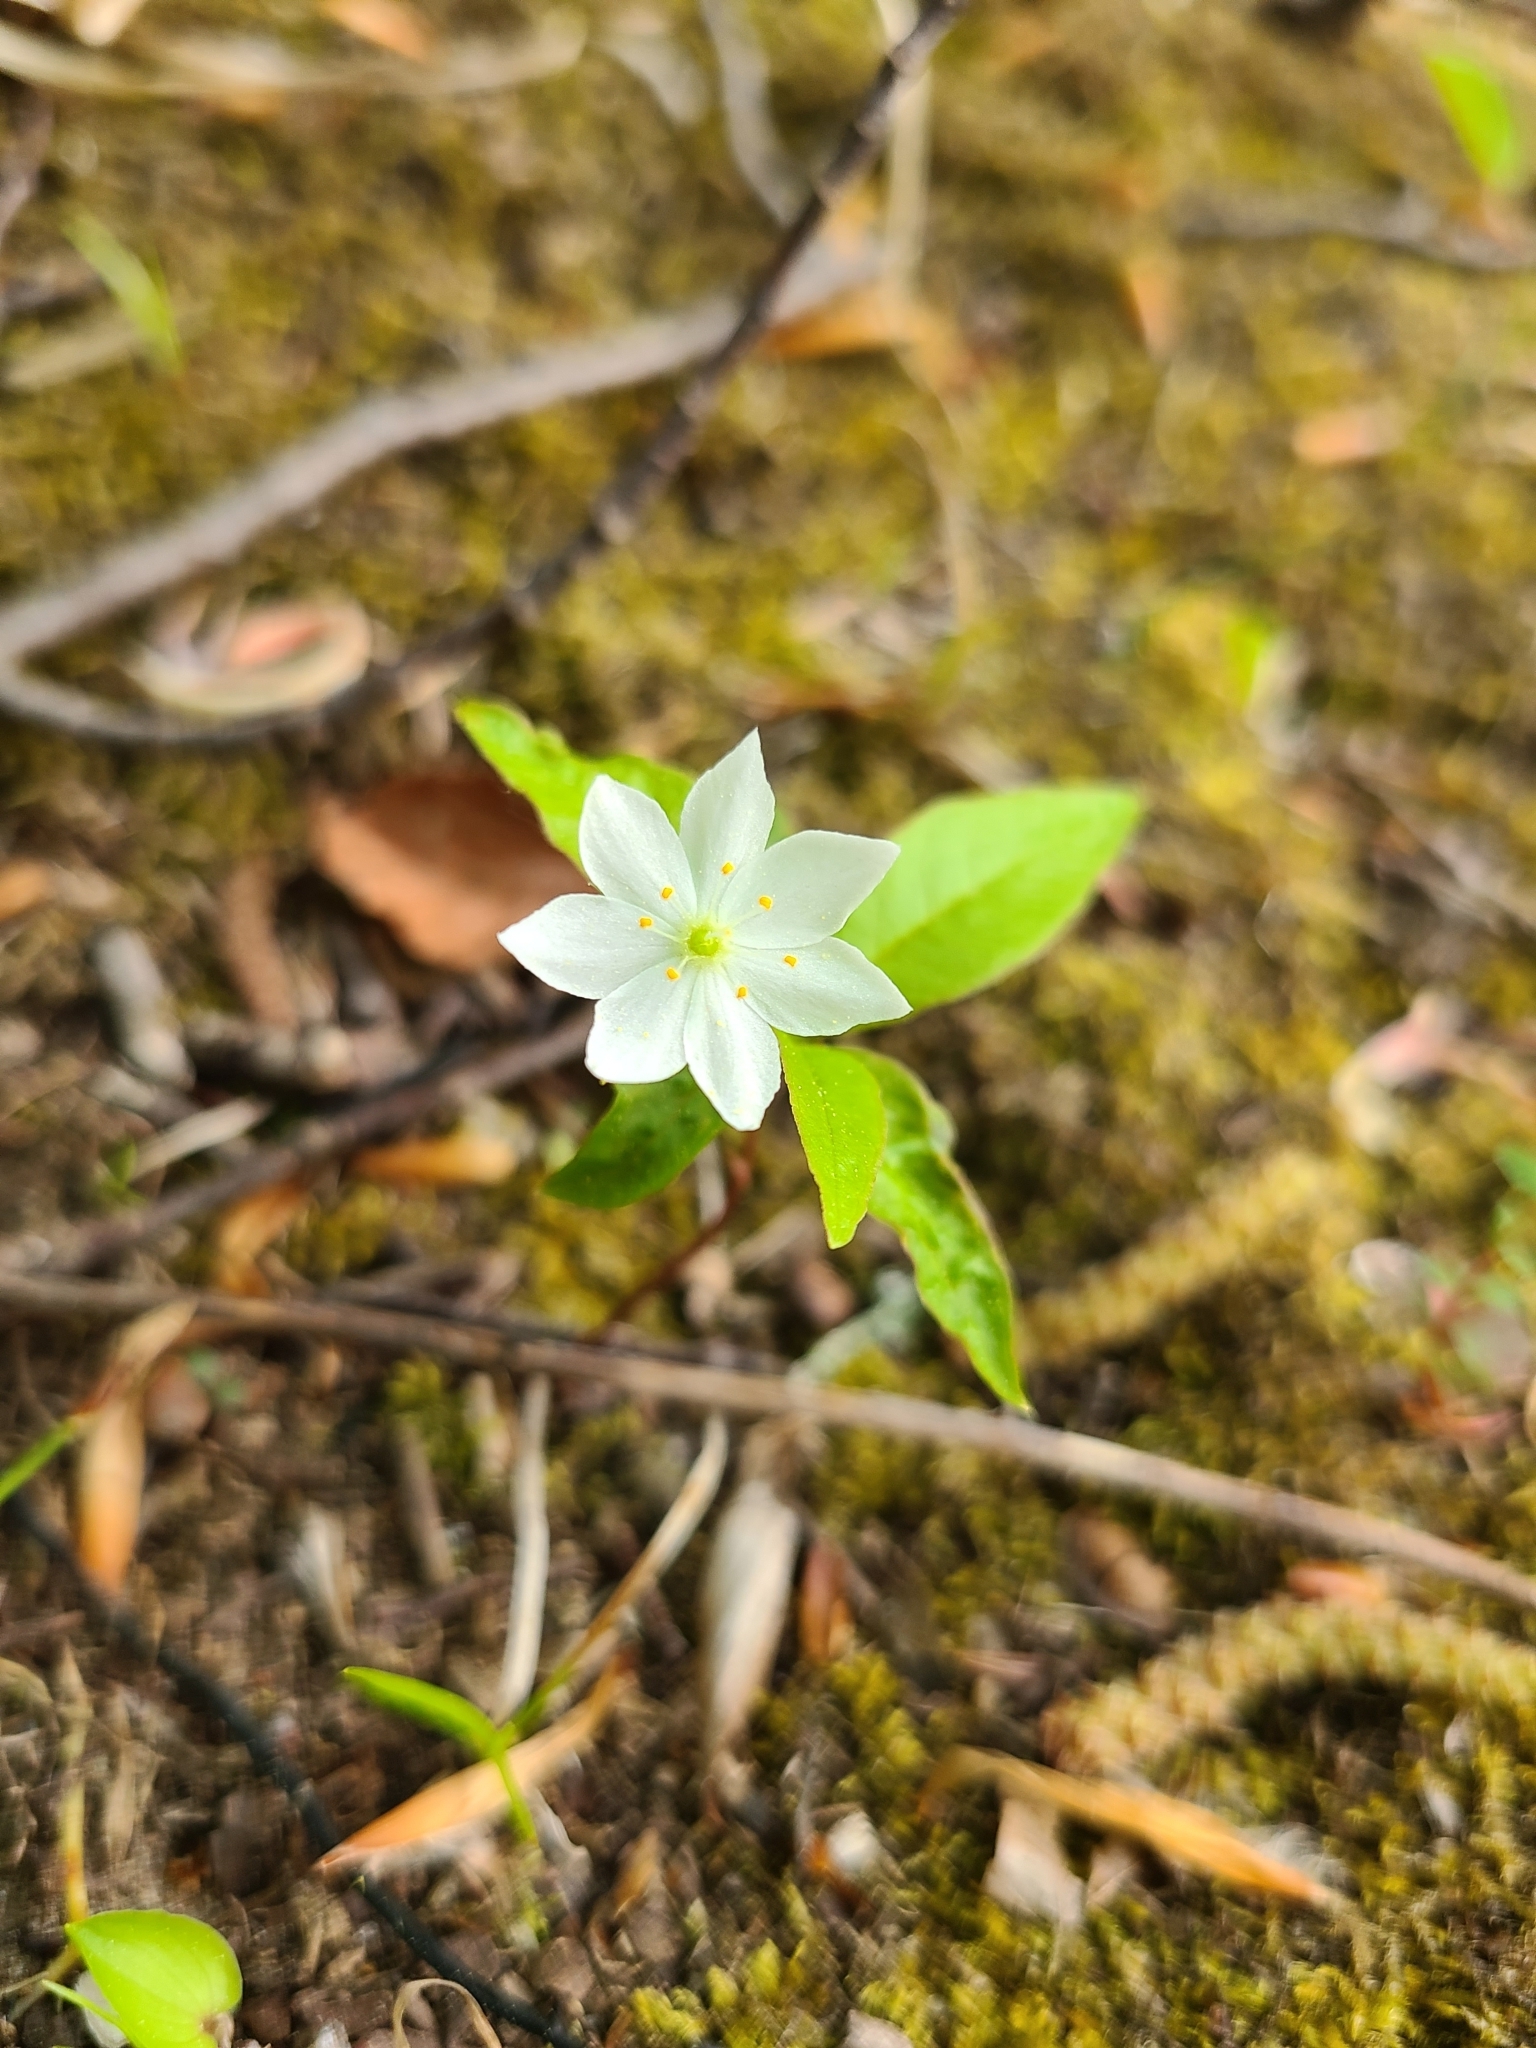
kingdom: Plantae
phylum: Tracheophyta
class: Magnoliopsida
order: Ericales
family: Primulaceae
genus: Lysimachia
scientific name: Lysimachia borealis
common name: American starflower
